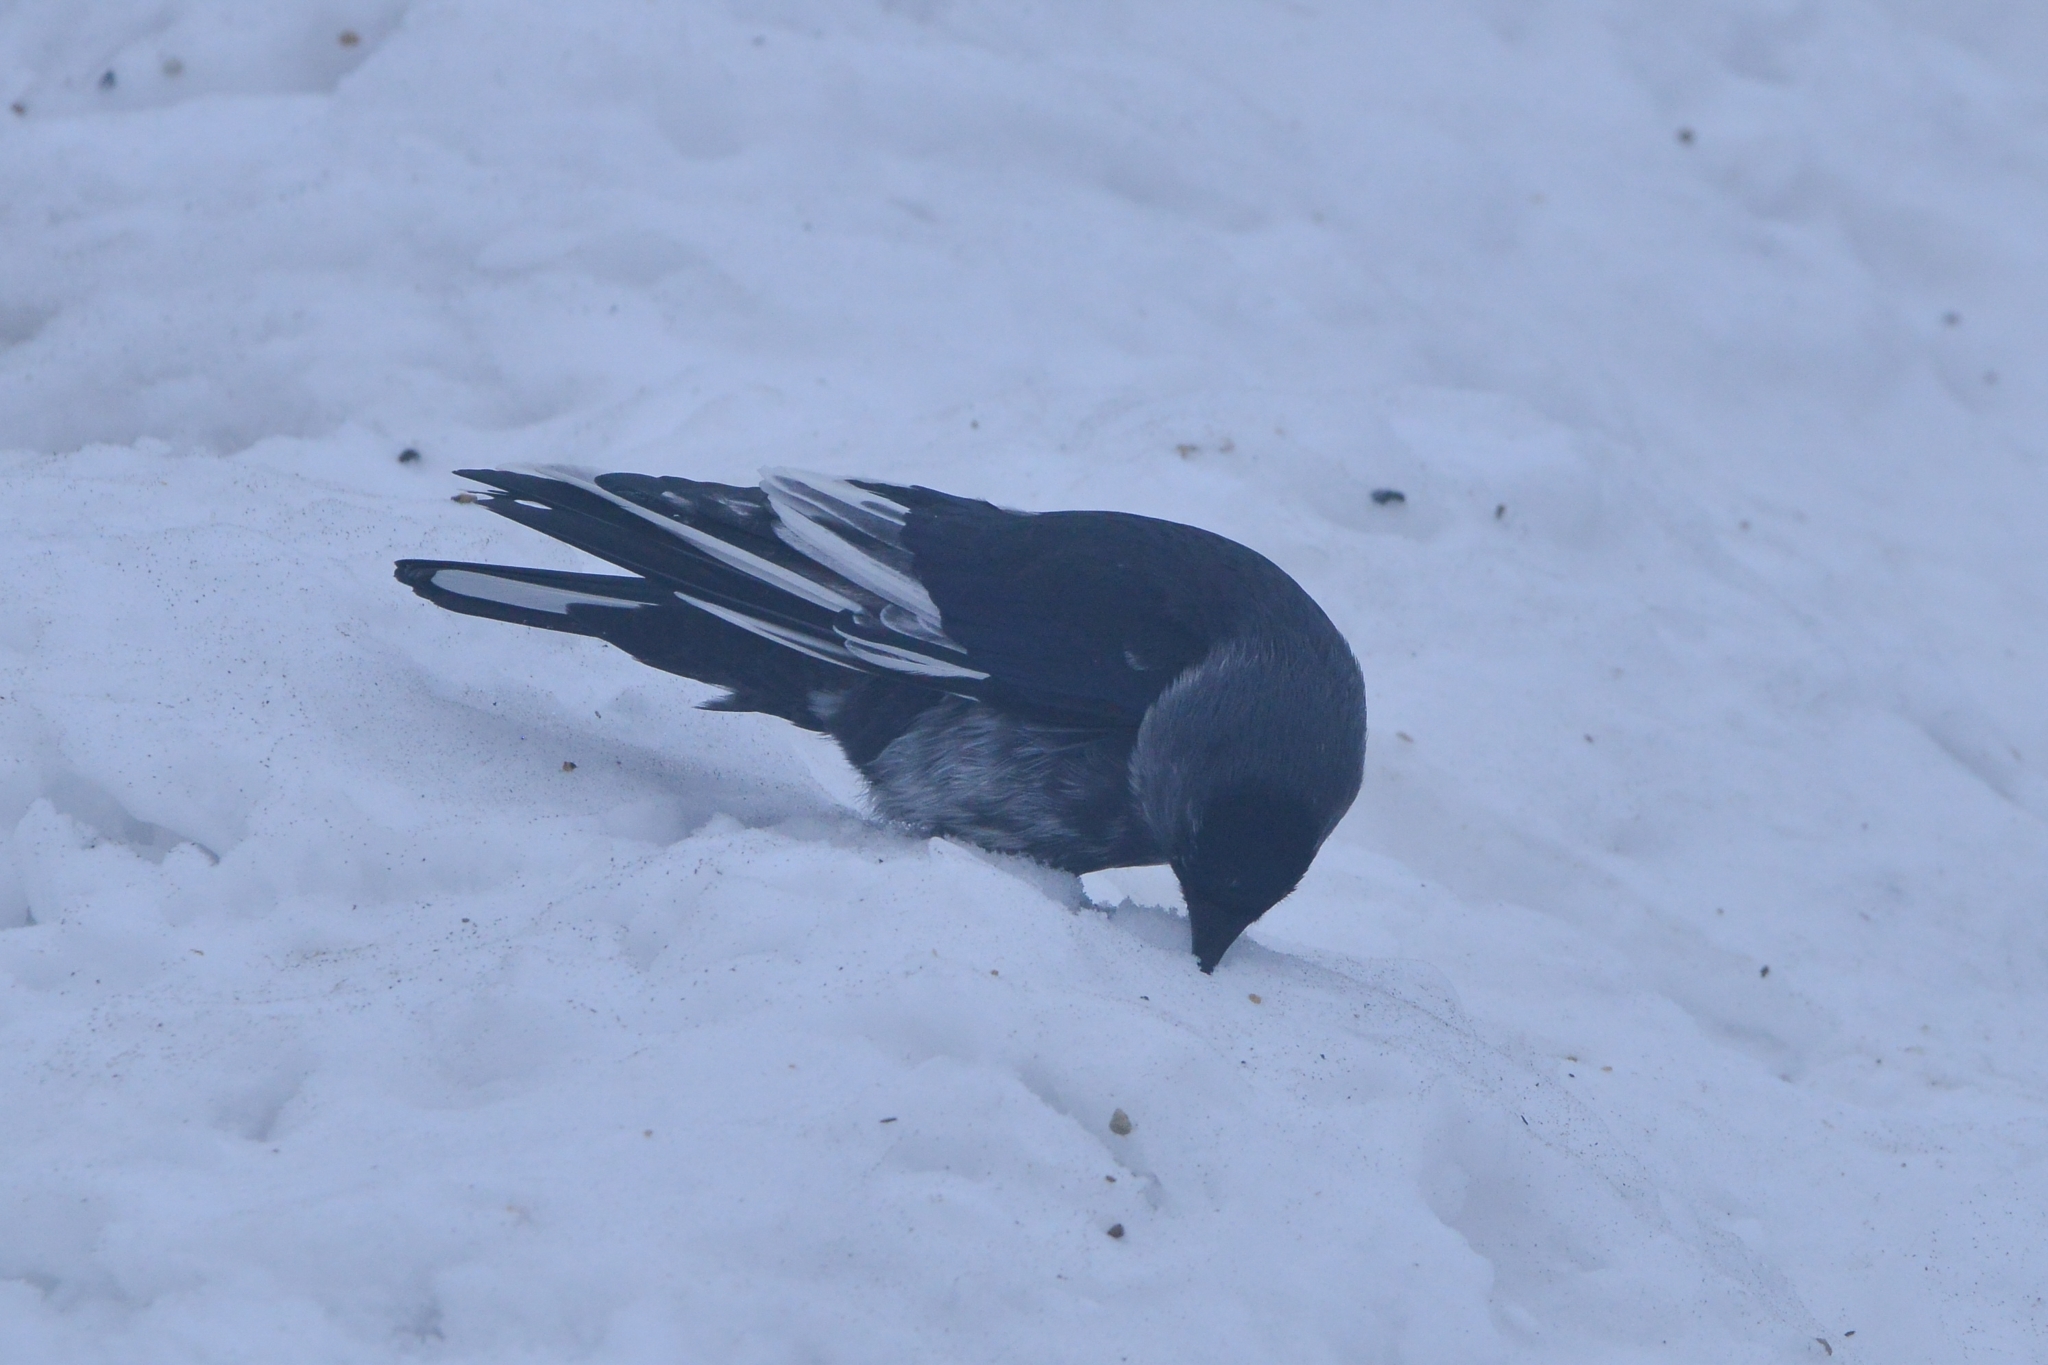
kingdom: Animalia
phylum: Chordata
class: Aves
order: Passeriformes
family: Corvidae
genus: Coloeus
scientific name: Coloeus monedula
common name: Western jackdaw
